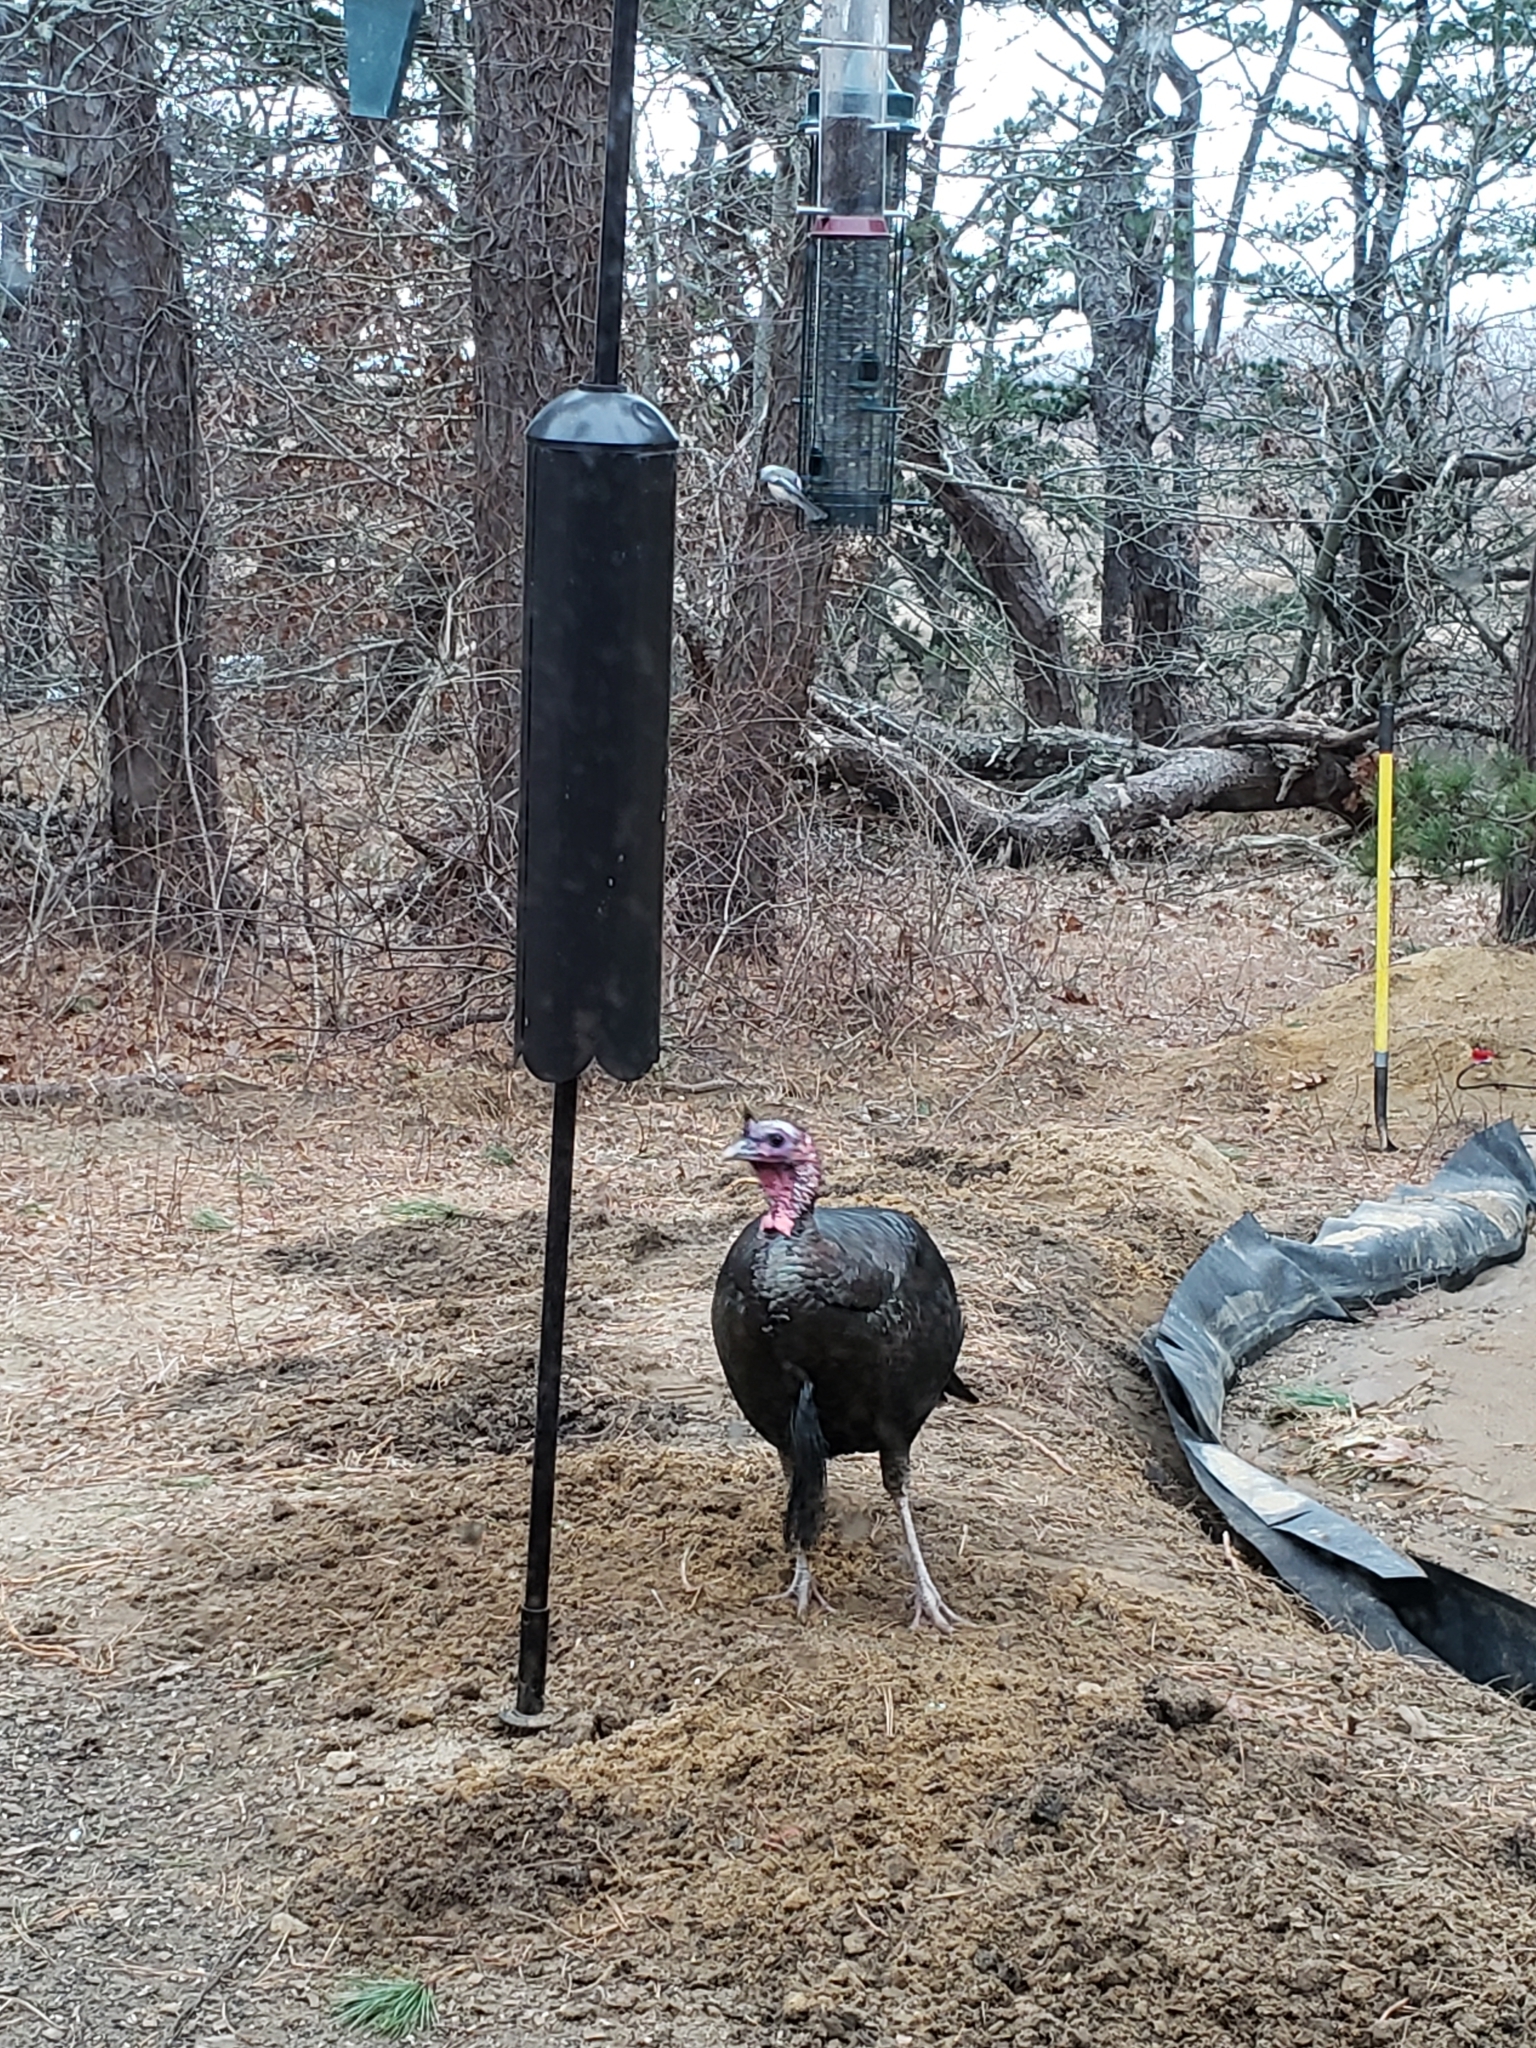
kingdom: Animalia
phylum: Chordata
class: Aves
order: Galliformes
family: Phasianidae
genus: Meleagris
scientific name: Meleagris gallopavo
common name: Wild turkey
